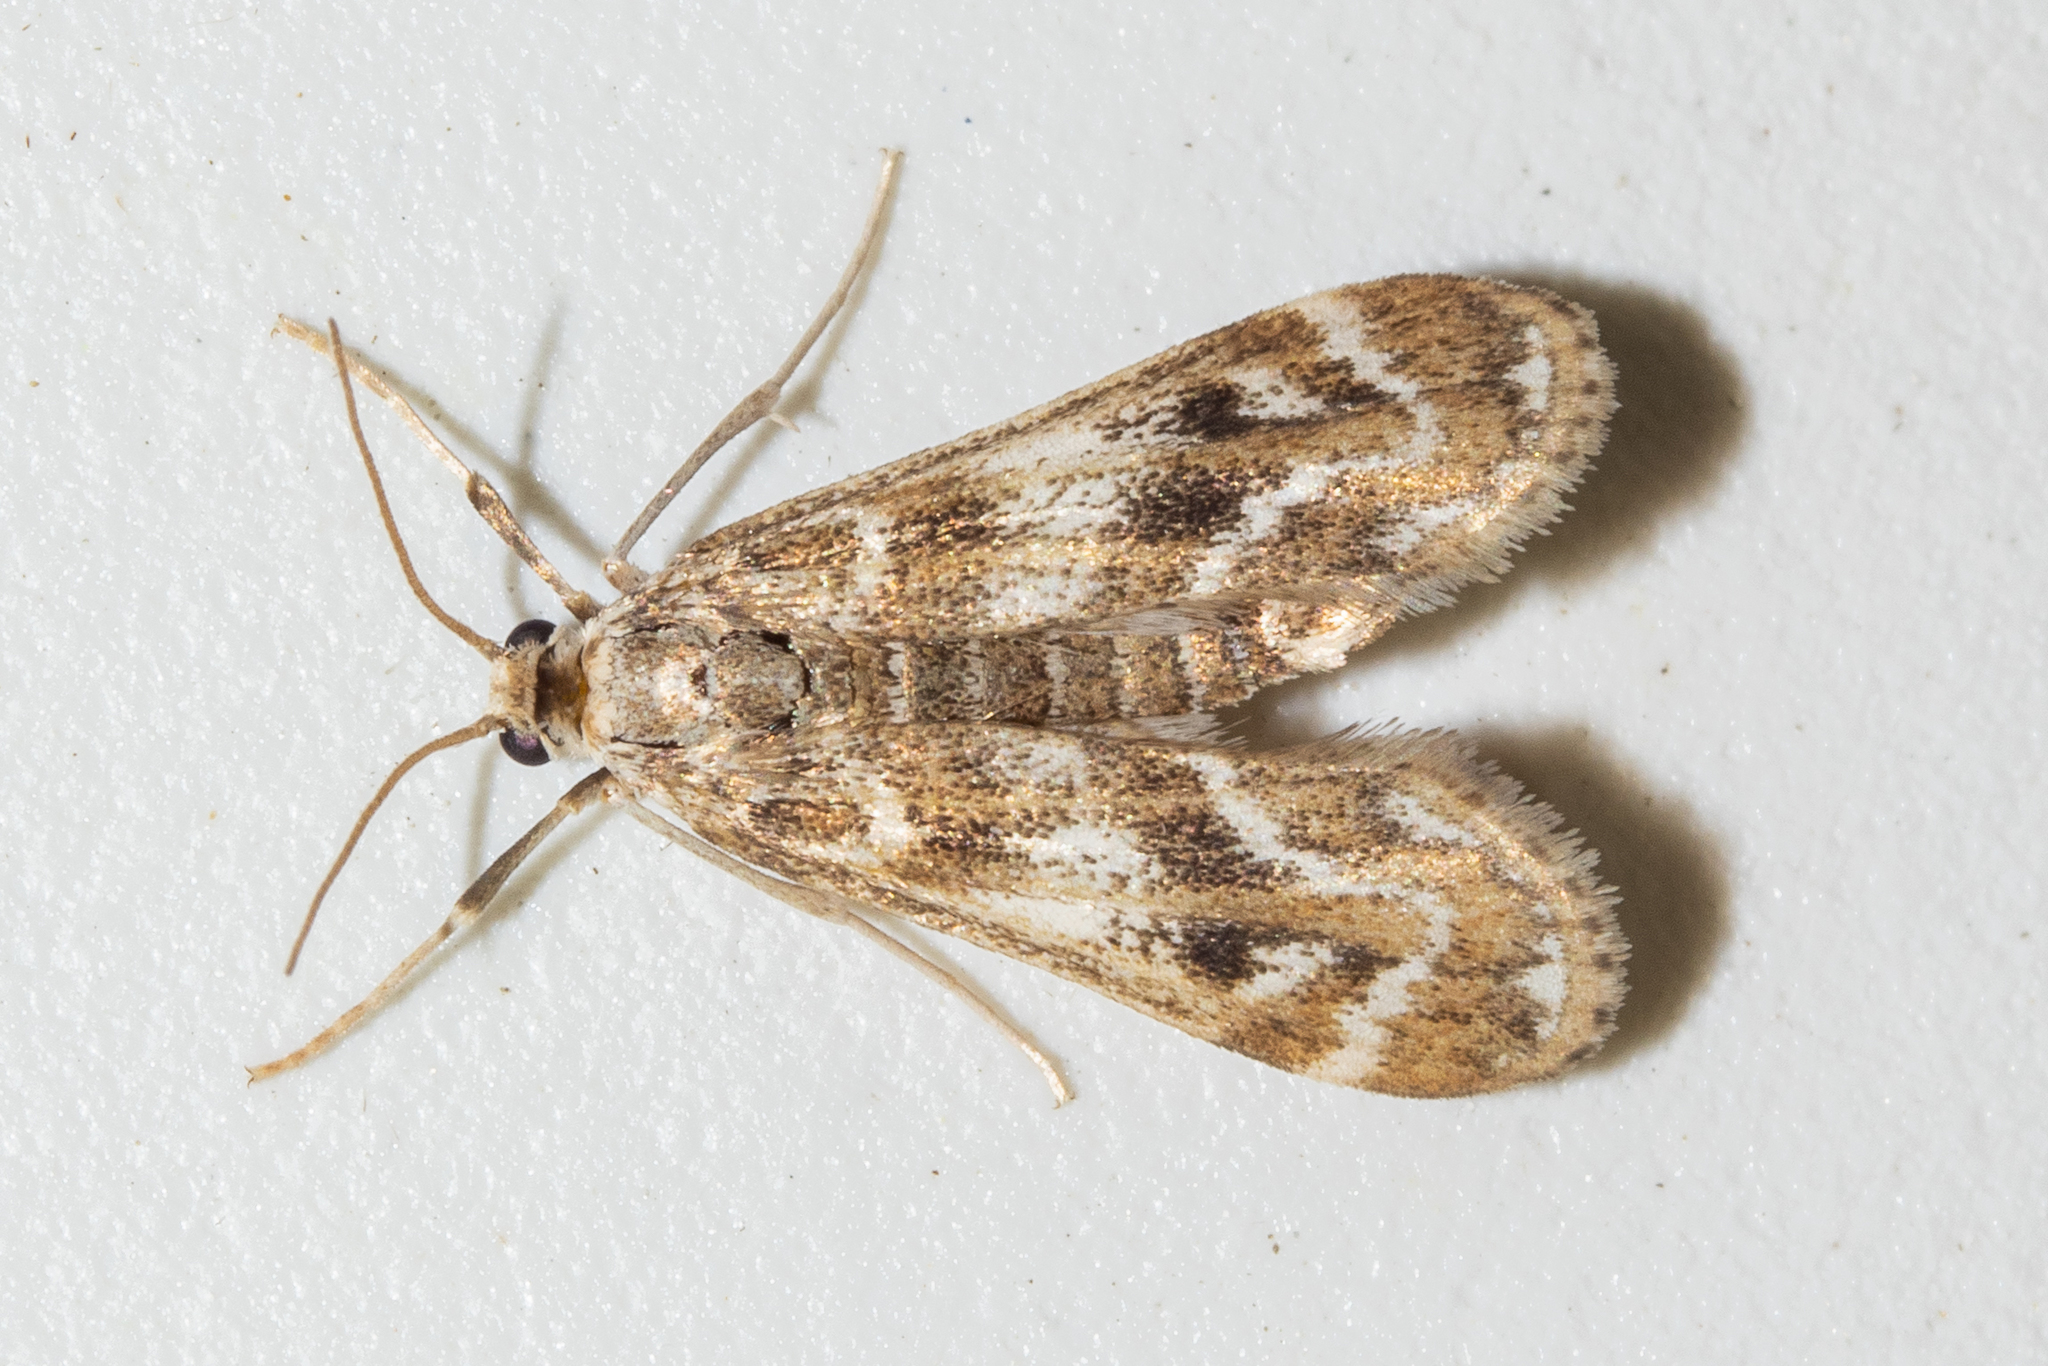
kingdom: Animalia
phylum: Arthropoda
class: Insecta
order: Lepidoptera
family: Crambidae
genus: Hygraula
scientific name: Hygraula nitens
